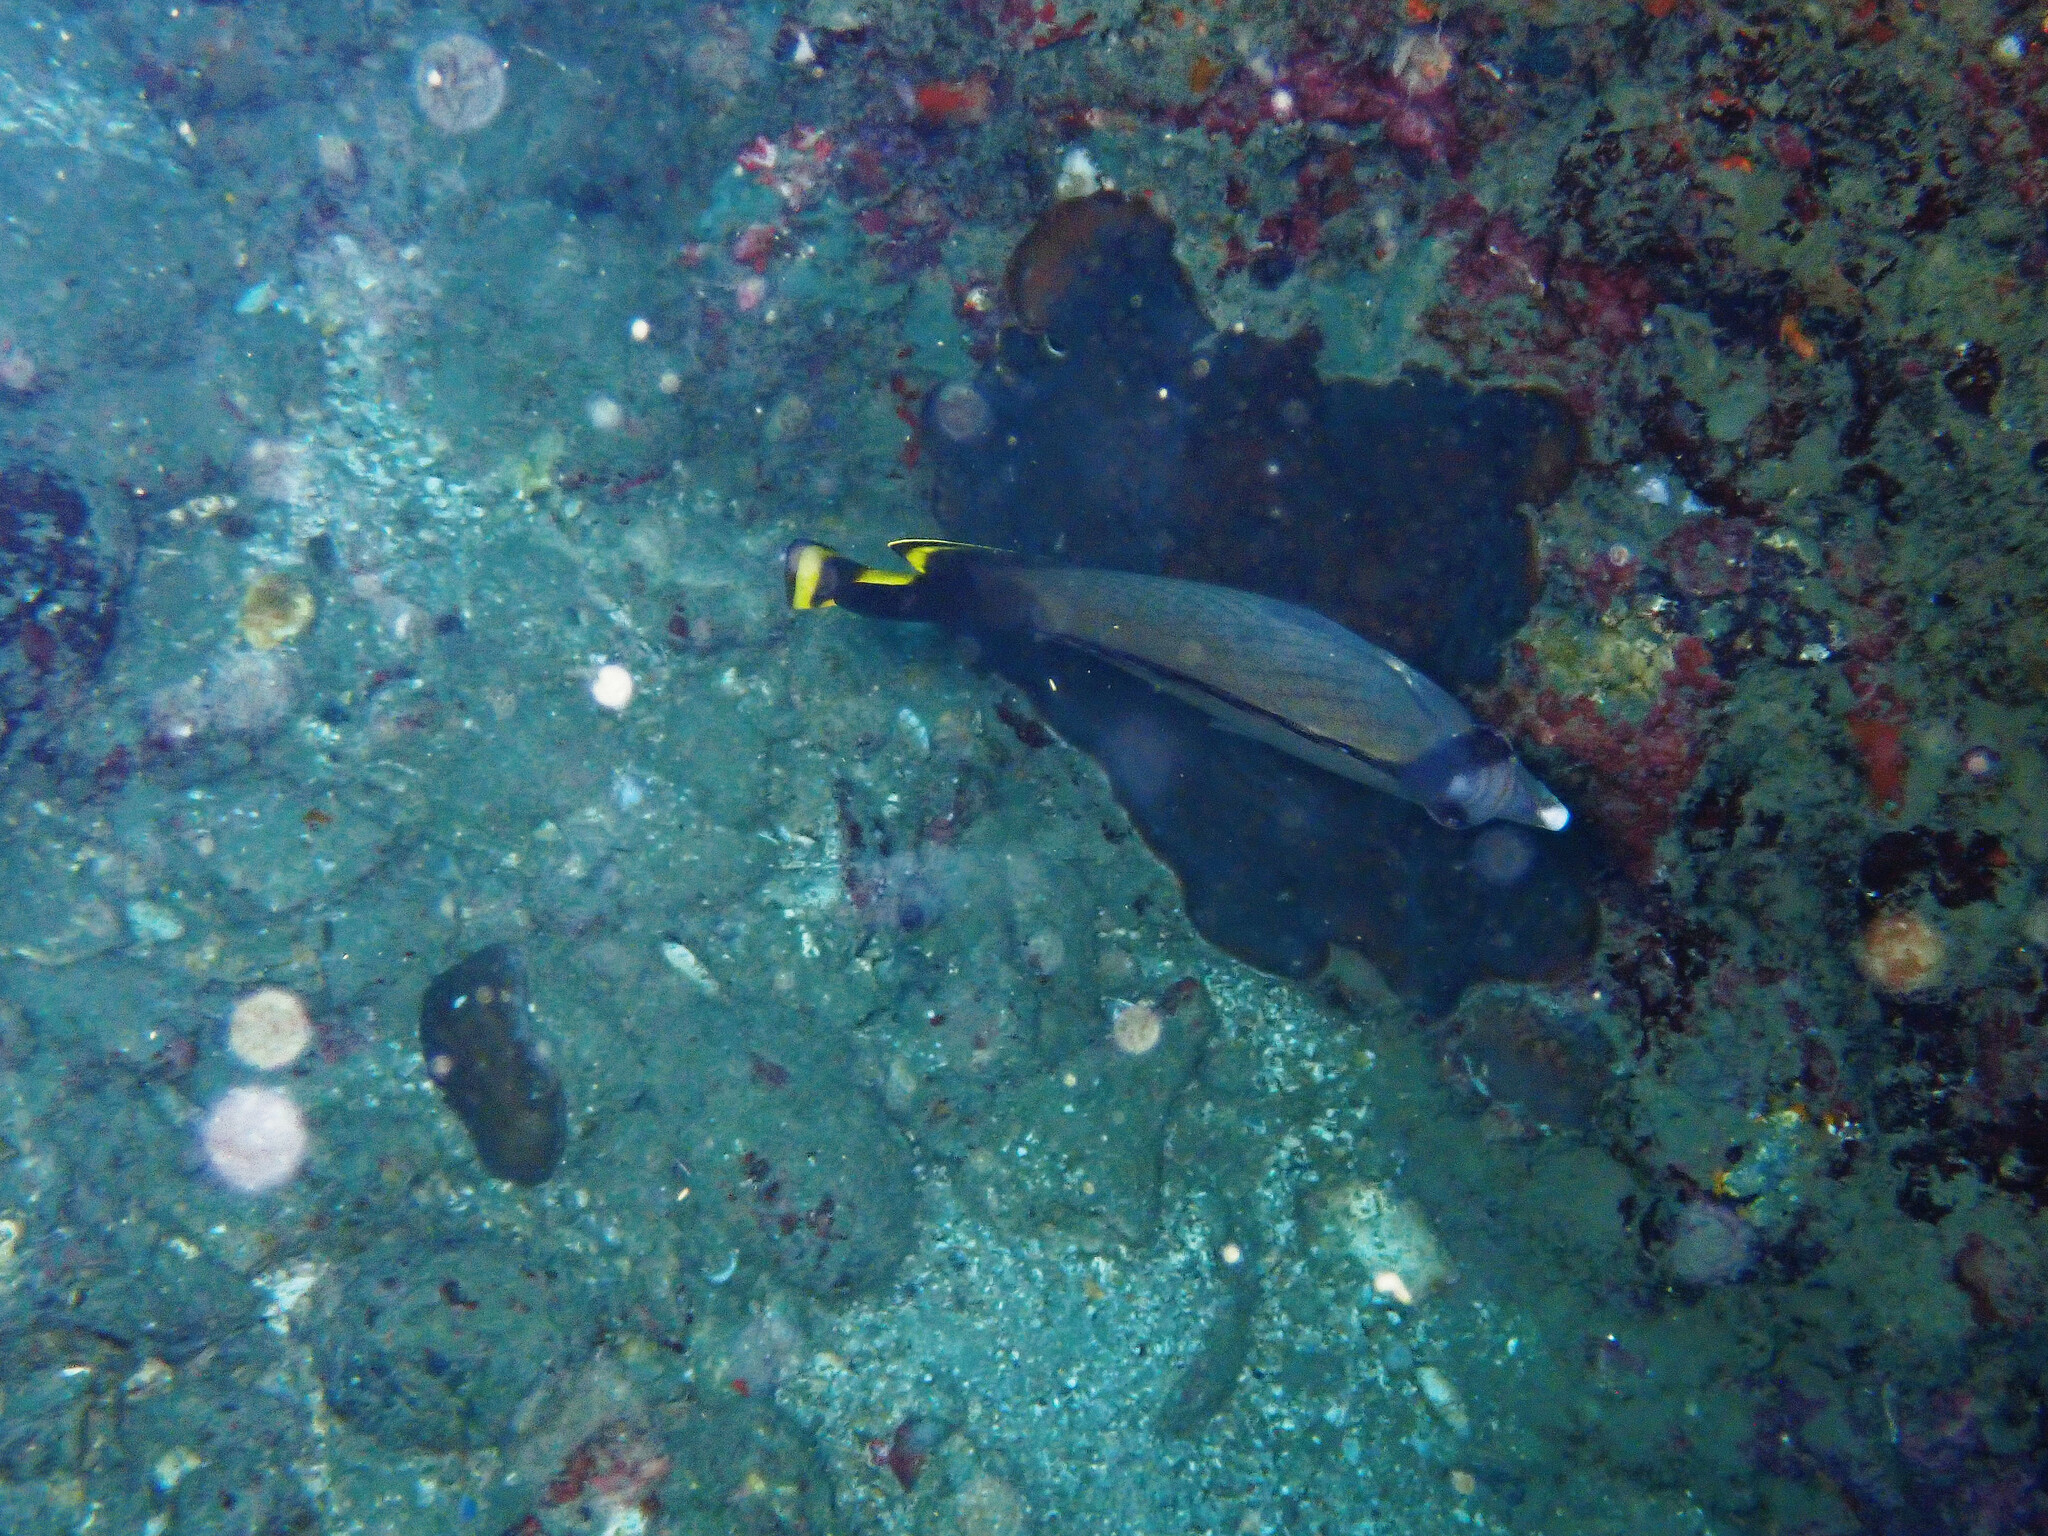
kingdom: Animalia
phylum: Chordata
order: Perciformes
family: Chaetodontidae
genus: Chaetodon
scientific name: Chaetodon decussatus
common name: Indian vagabond butterflyfish
